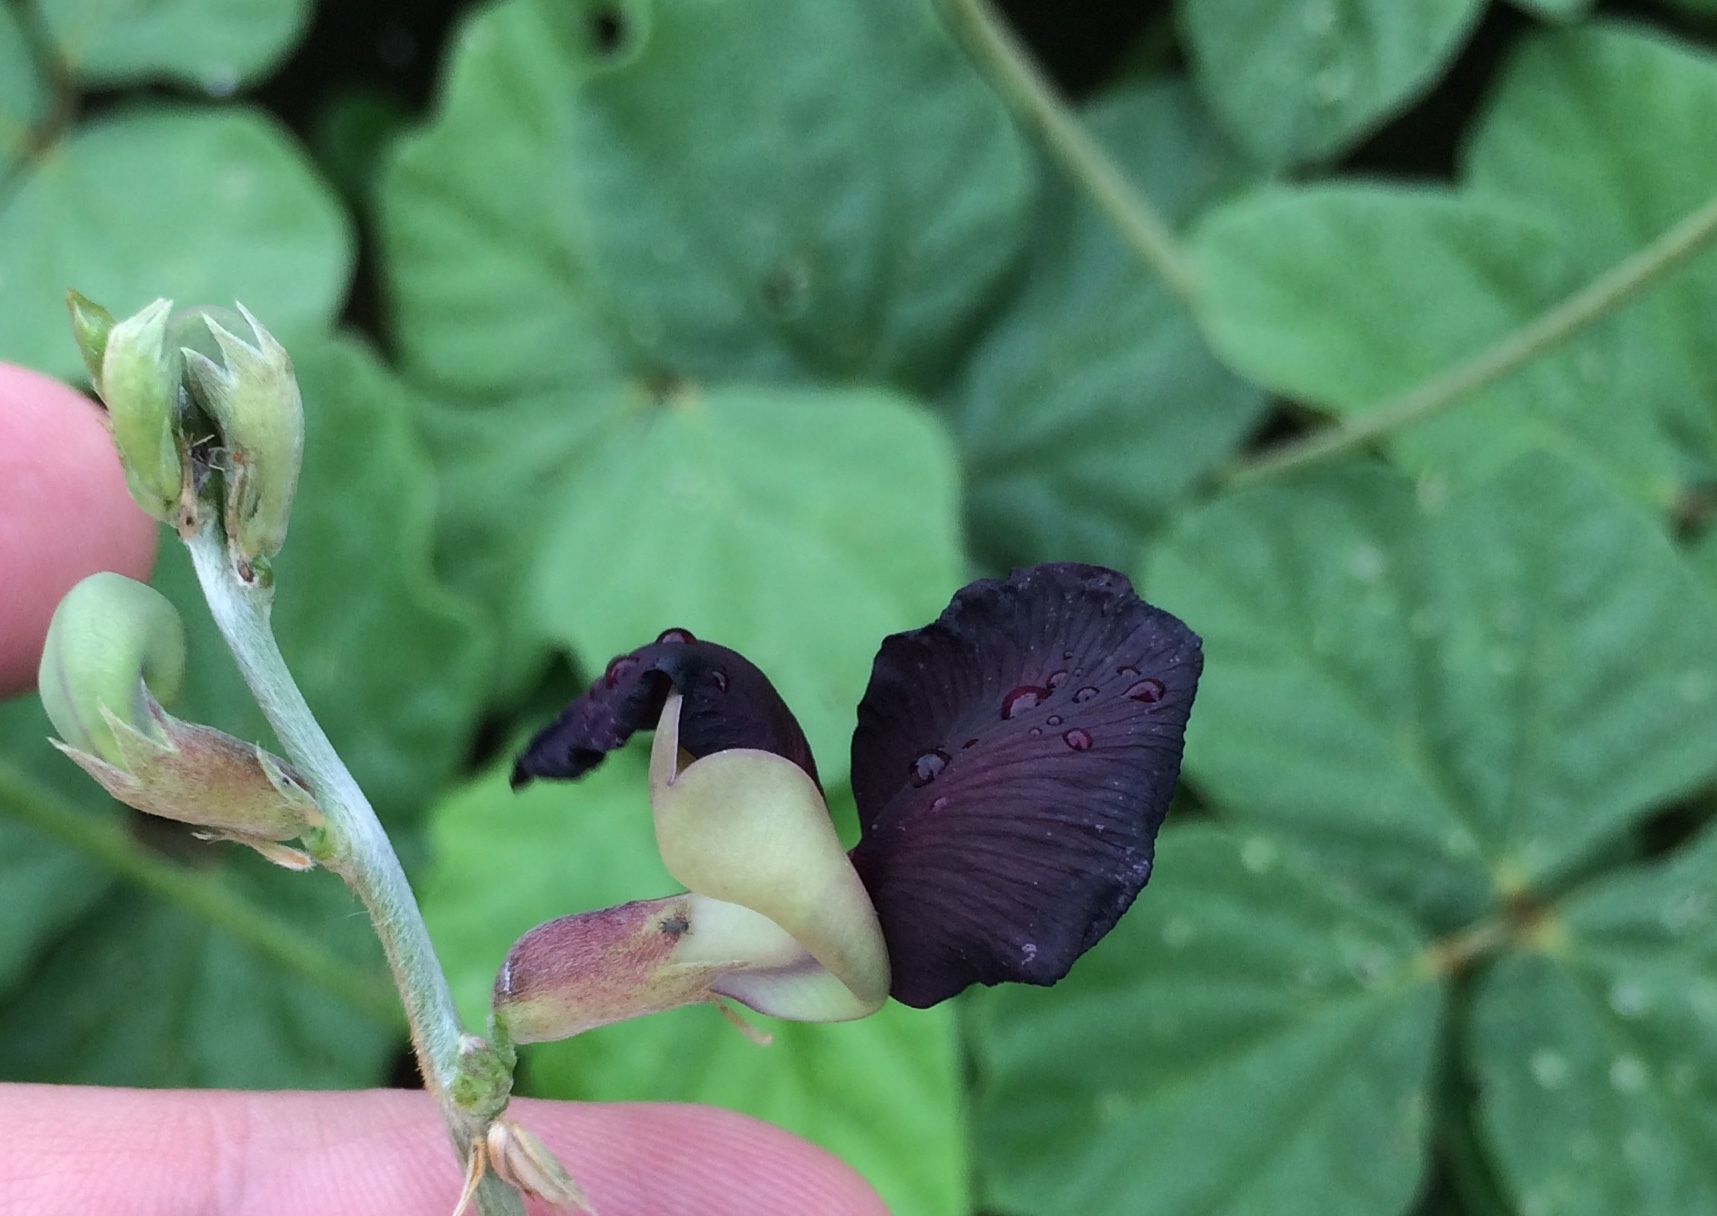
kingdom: Plantae
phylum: Tracheophyta
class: Magnoliopsida
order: Fabales
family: Fabaceae
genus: Macroptilium
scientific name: Macroptilium atropurpureum
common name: Purple bushbean
